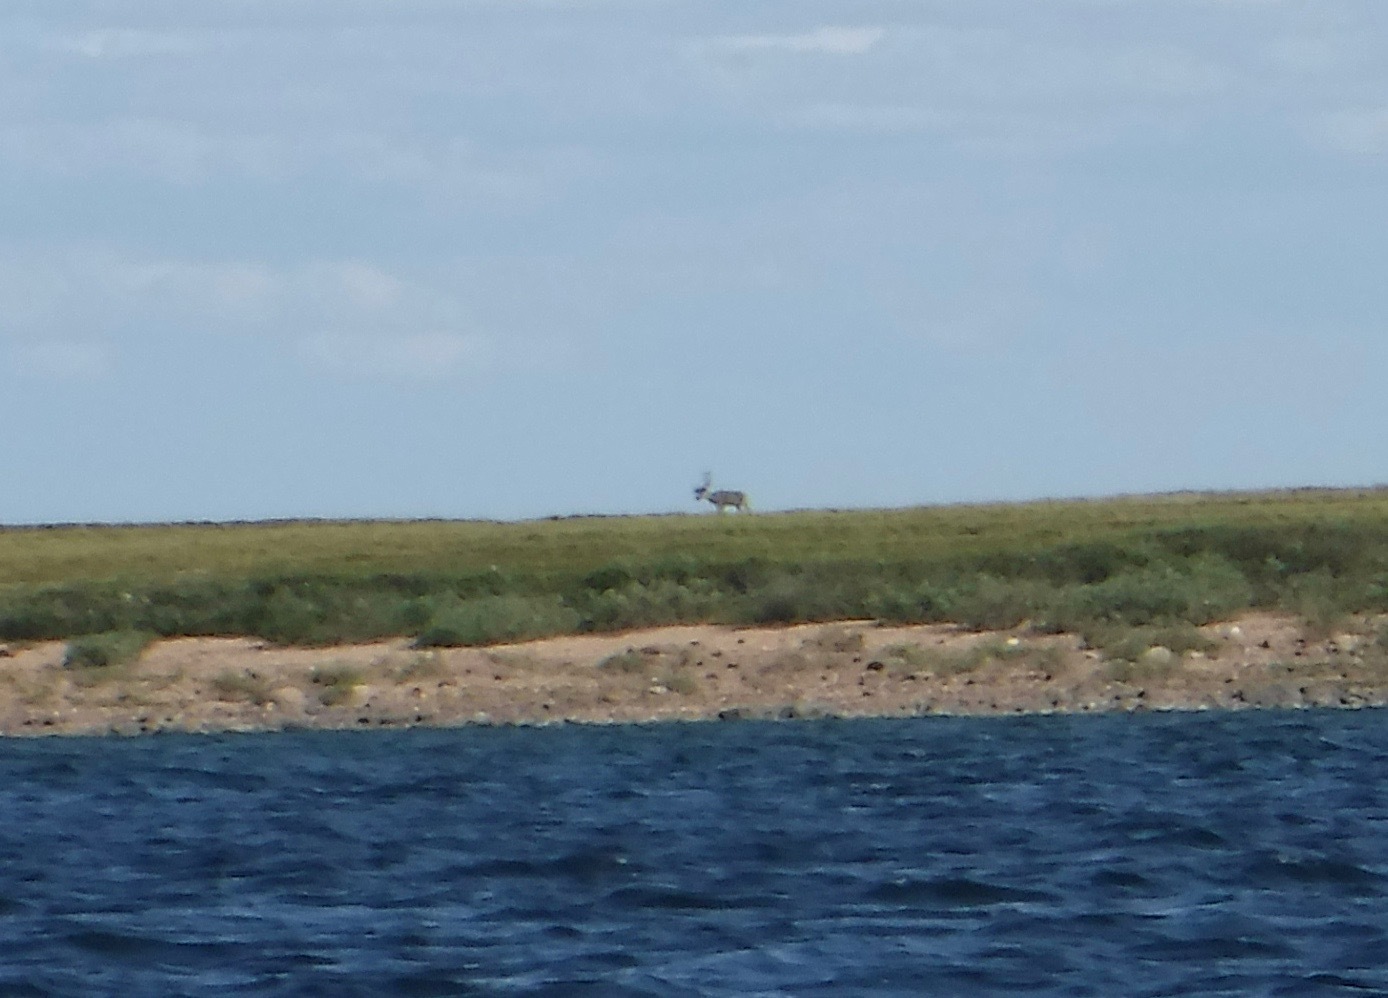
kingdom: Animalia
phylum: Chordata
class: Mammalia
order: Artiodactyla
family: Cervidae
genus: Rangifer
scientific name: Rangifer tarandus
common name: Reindeer
